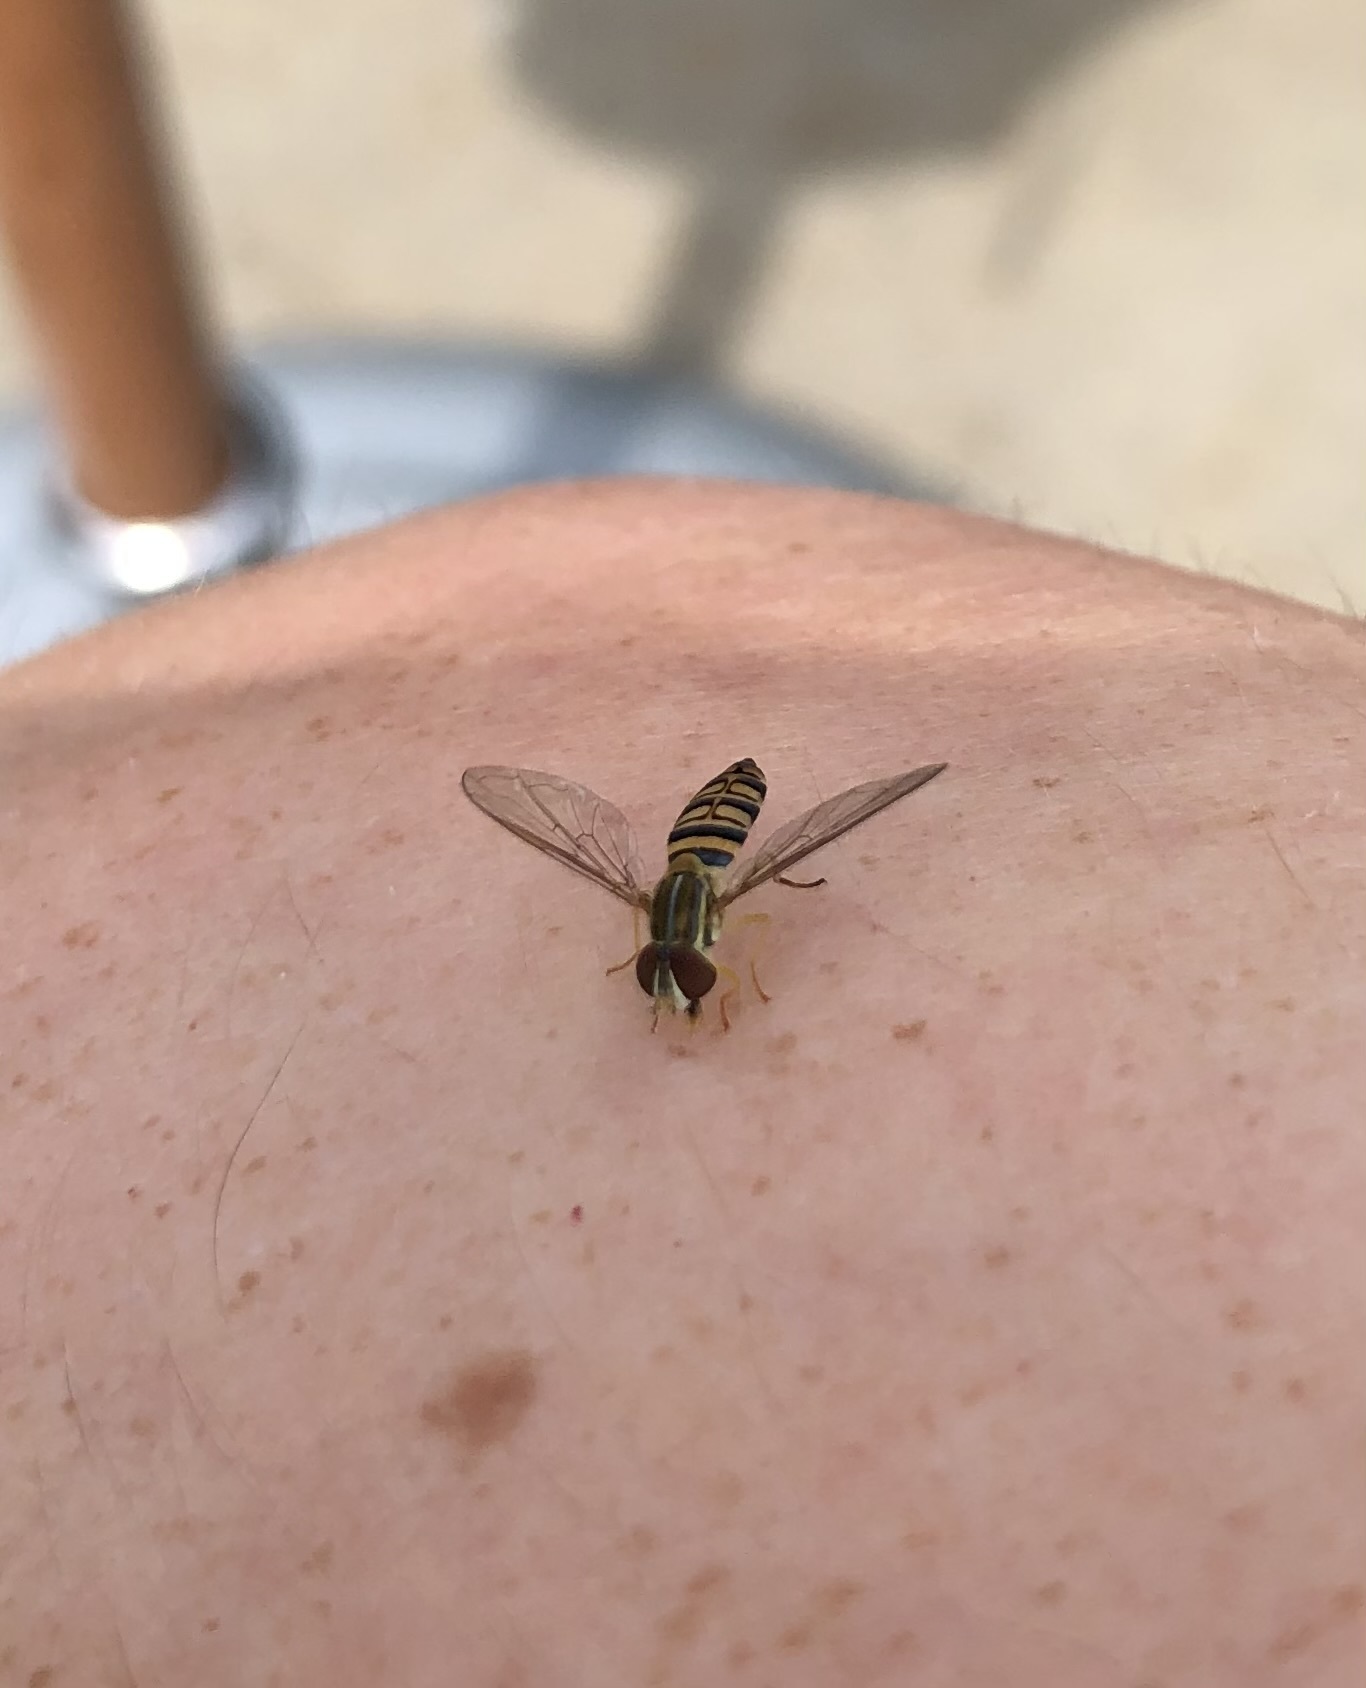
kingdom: Animalia
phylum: Arthropoda
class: Insecta
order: Diptera
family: Syrphidae
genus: Toxomerus
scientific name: Toxomerus politus
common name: Maize calligrapher
